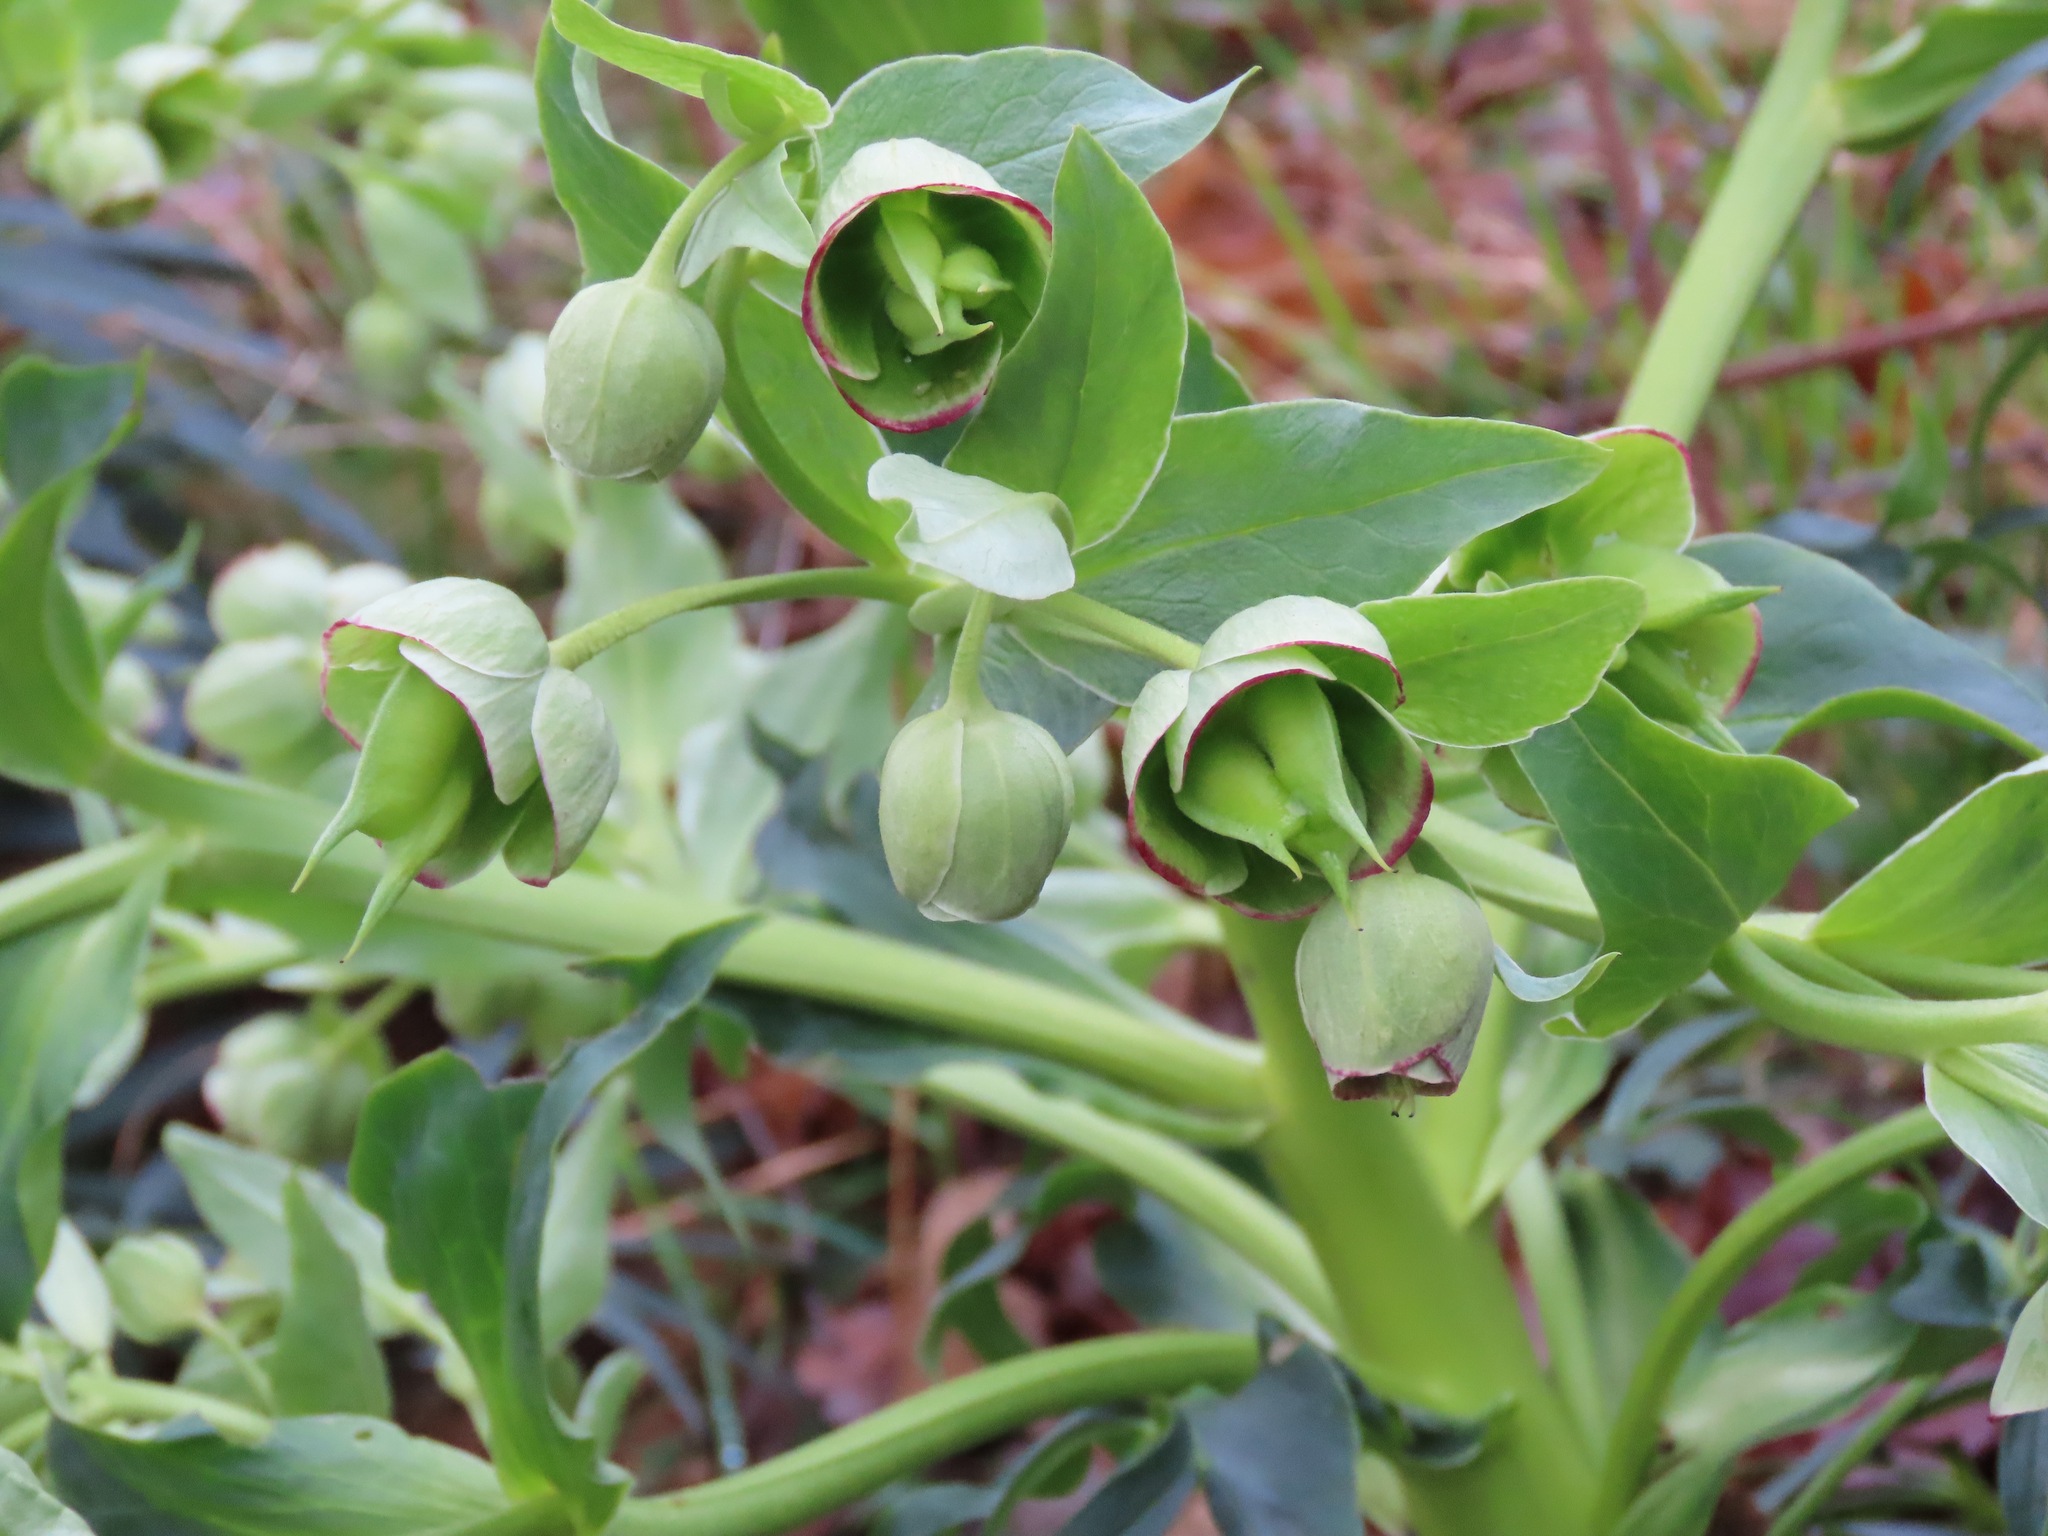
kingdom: Plantae
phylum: Tracheophyta
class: Magnoliopsida
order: Ranunculales
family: Ranunculaceae
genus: Helleborus
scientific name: Helleborus foetidus
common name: Stinking hellebore
